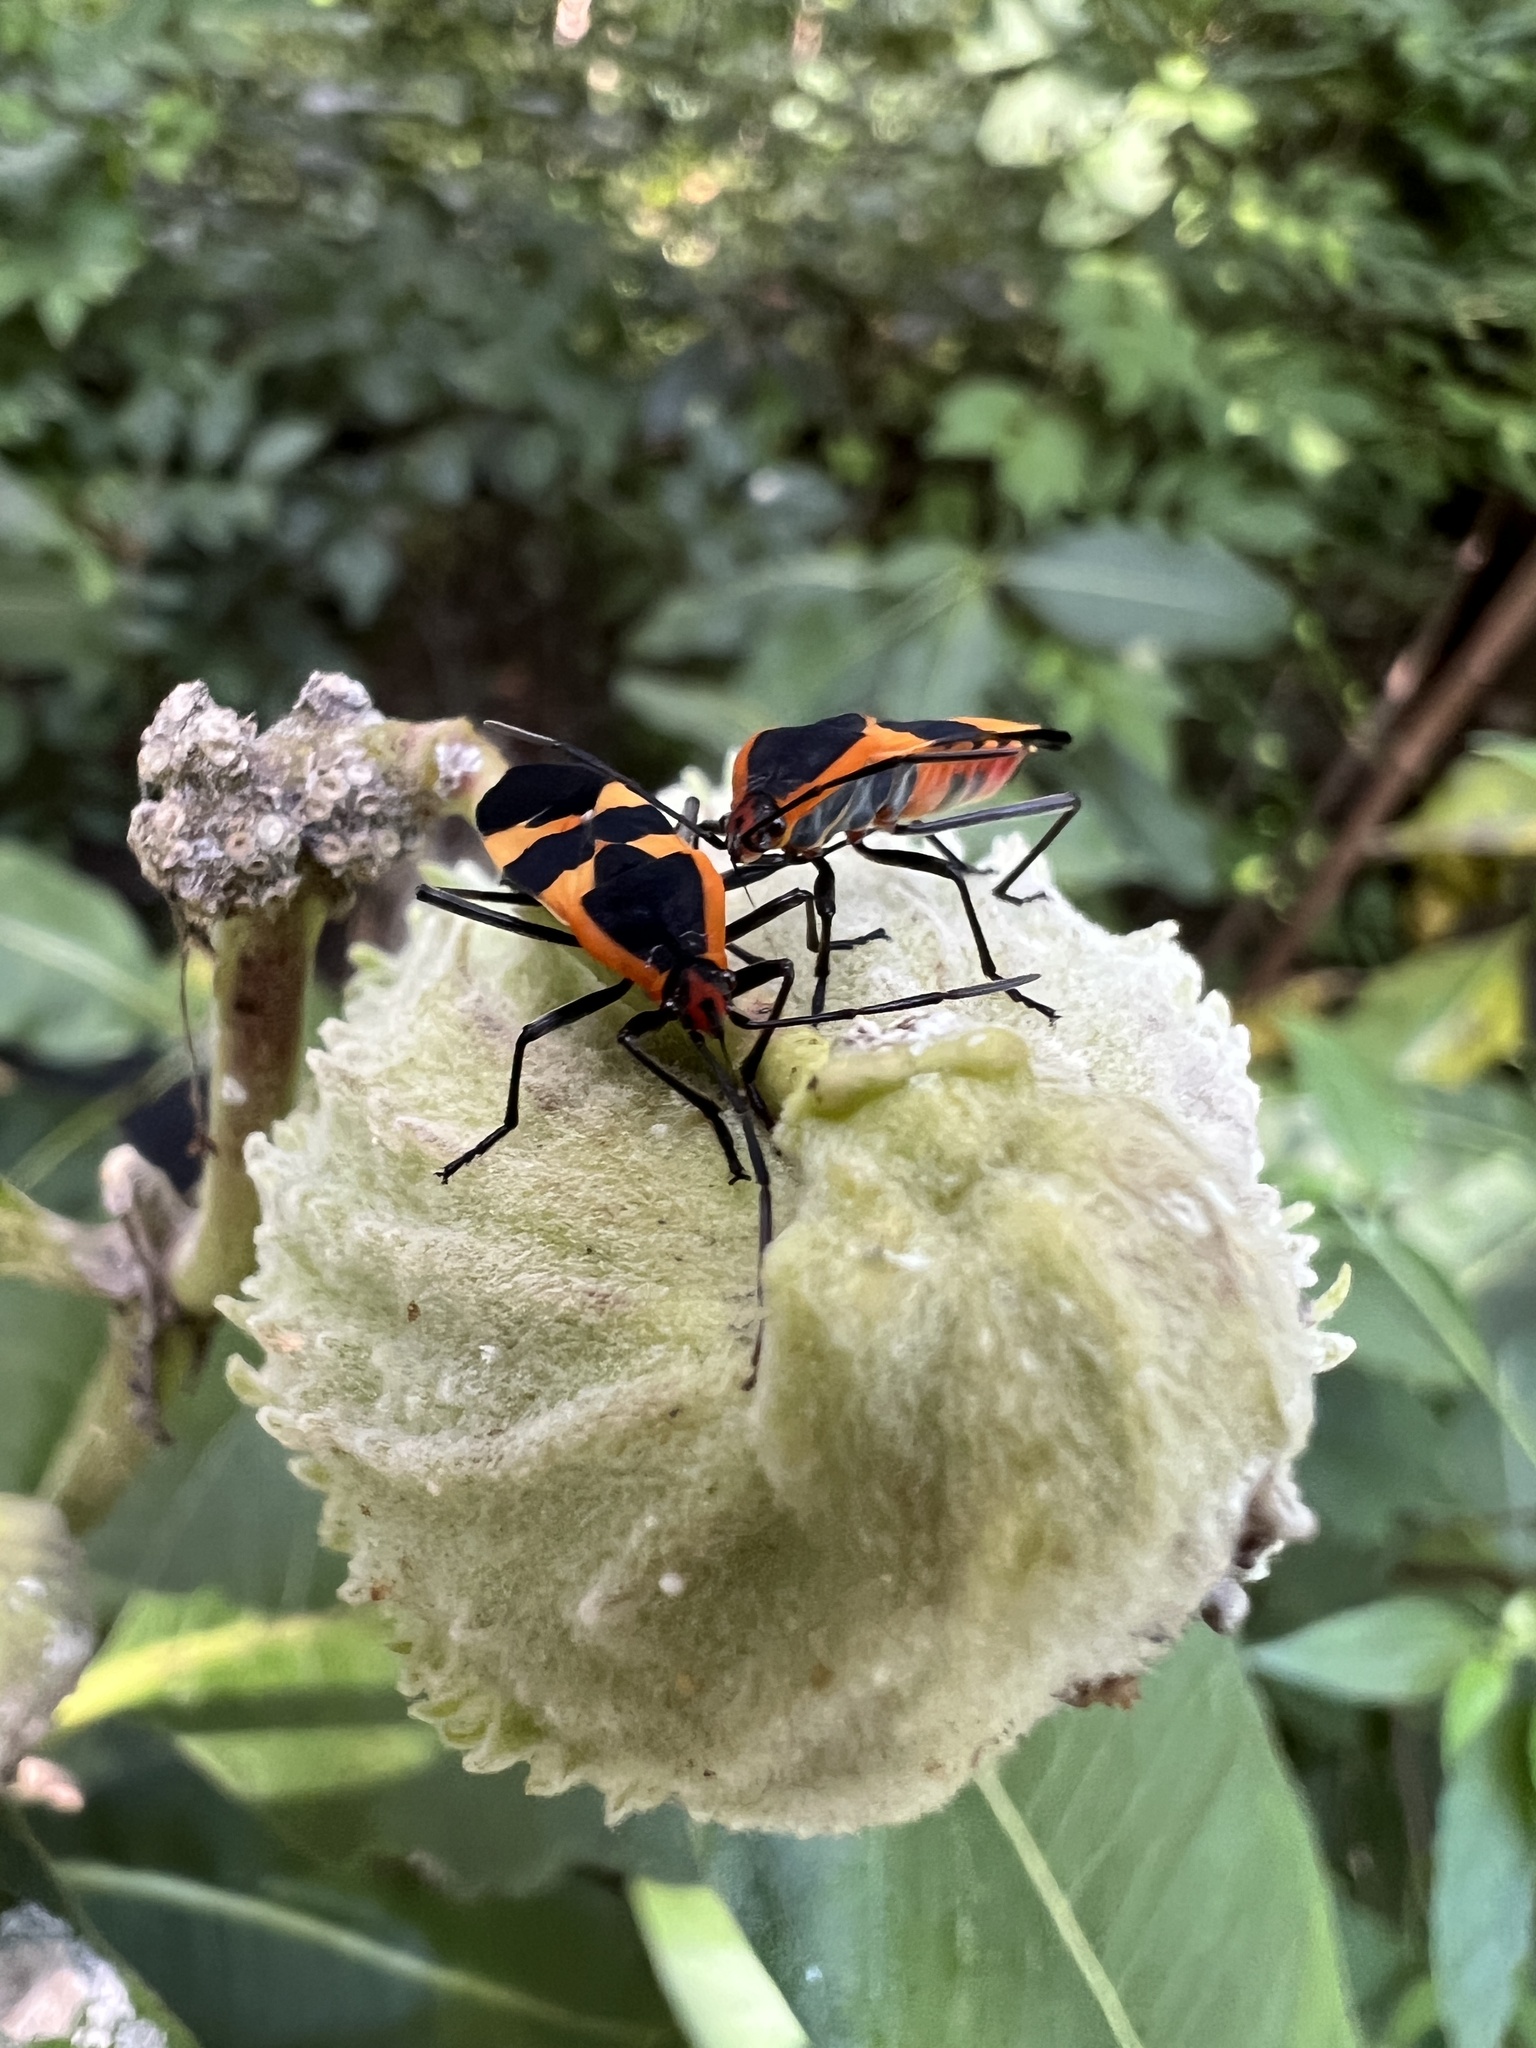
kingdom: Animalia
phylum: Arthropoda
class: Insecta
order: Hemiptera
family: Lygaeidae
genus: Oncopeltus
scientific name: Oncopeltus fasciatus
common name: Large milkweed bug
